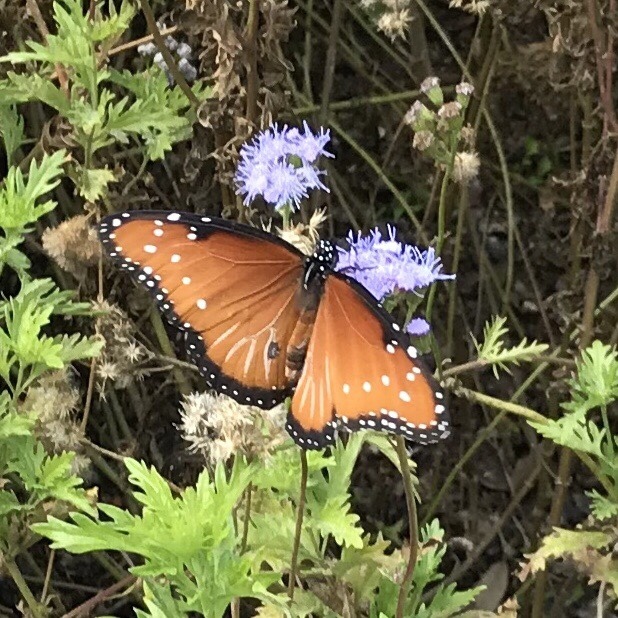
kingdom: Animalia
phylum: Arthropoda
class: Insecta
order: Lepidoptera
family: Nymphalidae
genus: Danaus
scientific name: Danaus gilippus
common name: Queen
